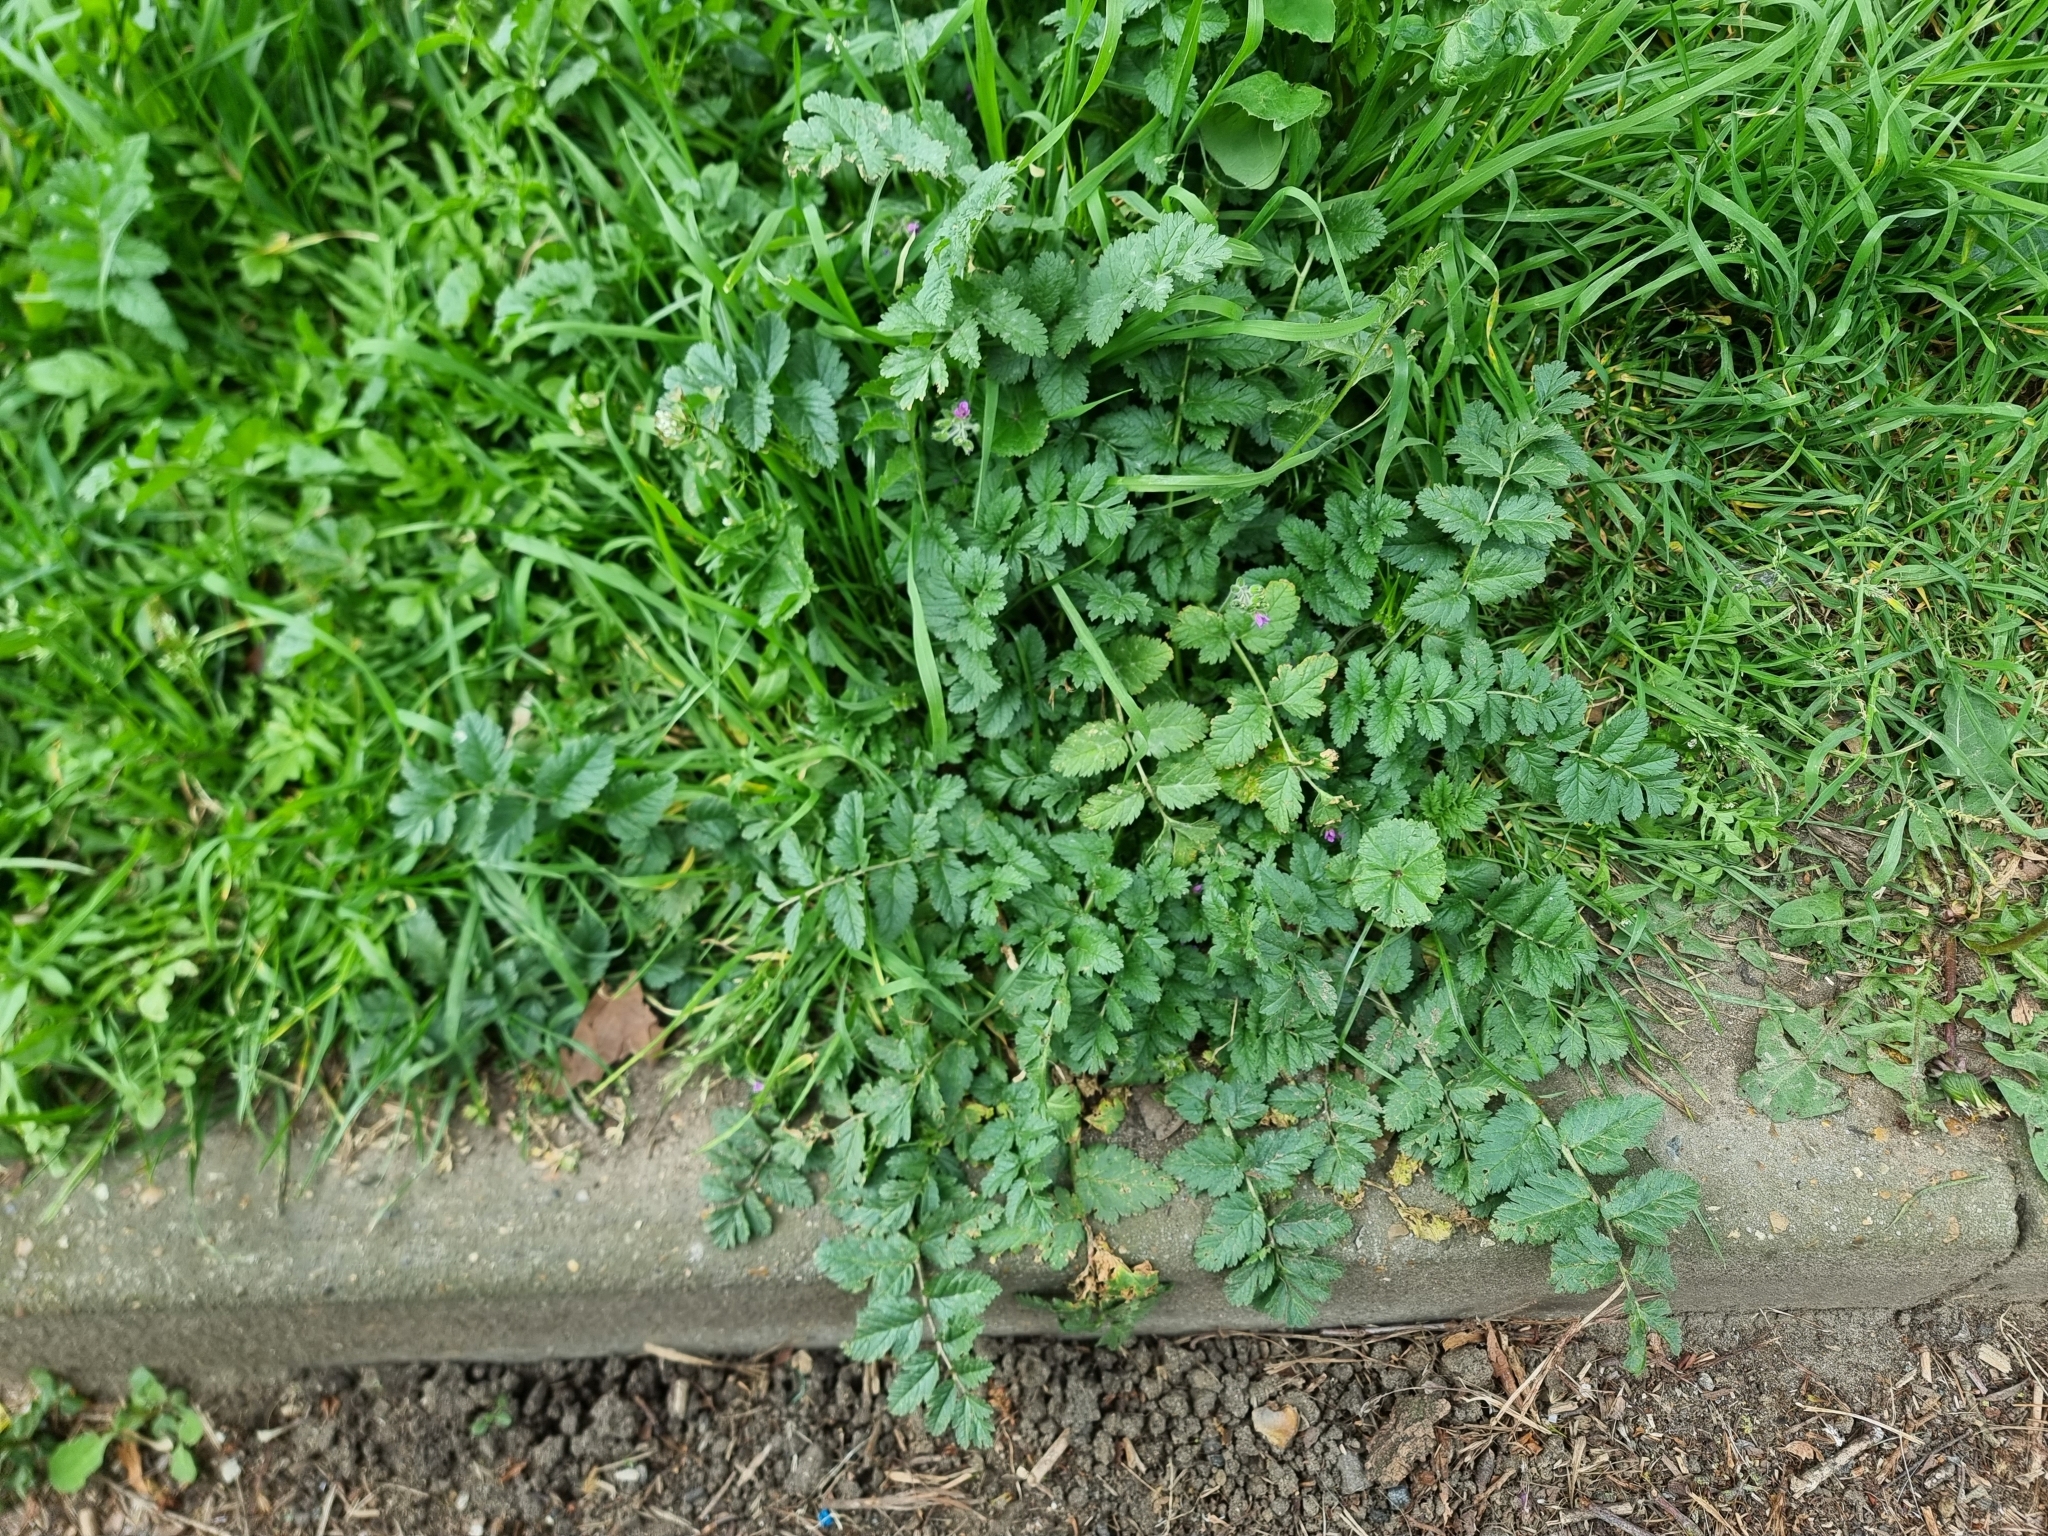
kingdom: Plantae
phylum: Tracheophyta
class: Magnoliopsida
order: Geraniales
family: Geraniaceae
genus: Erodium
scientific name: Erodium moschatum
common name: Musk stork's-bill
